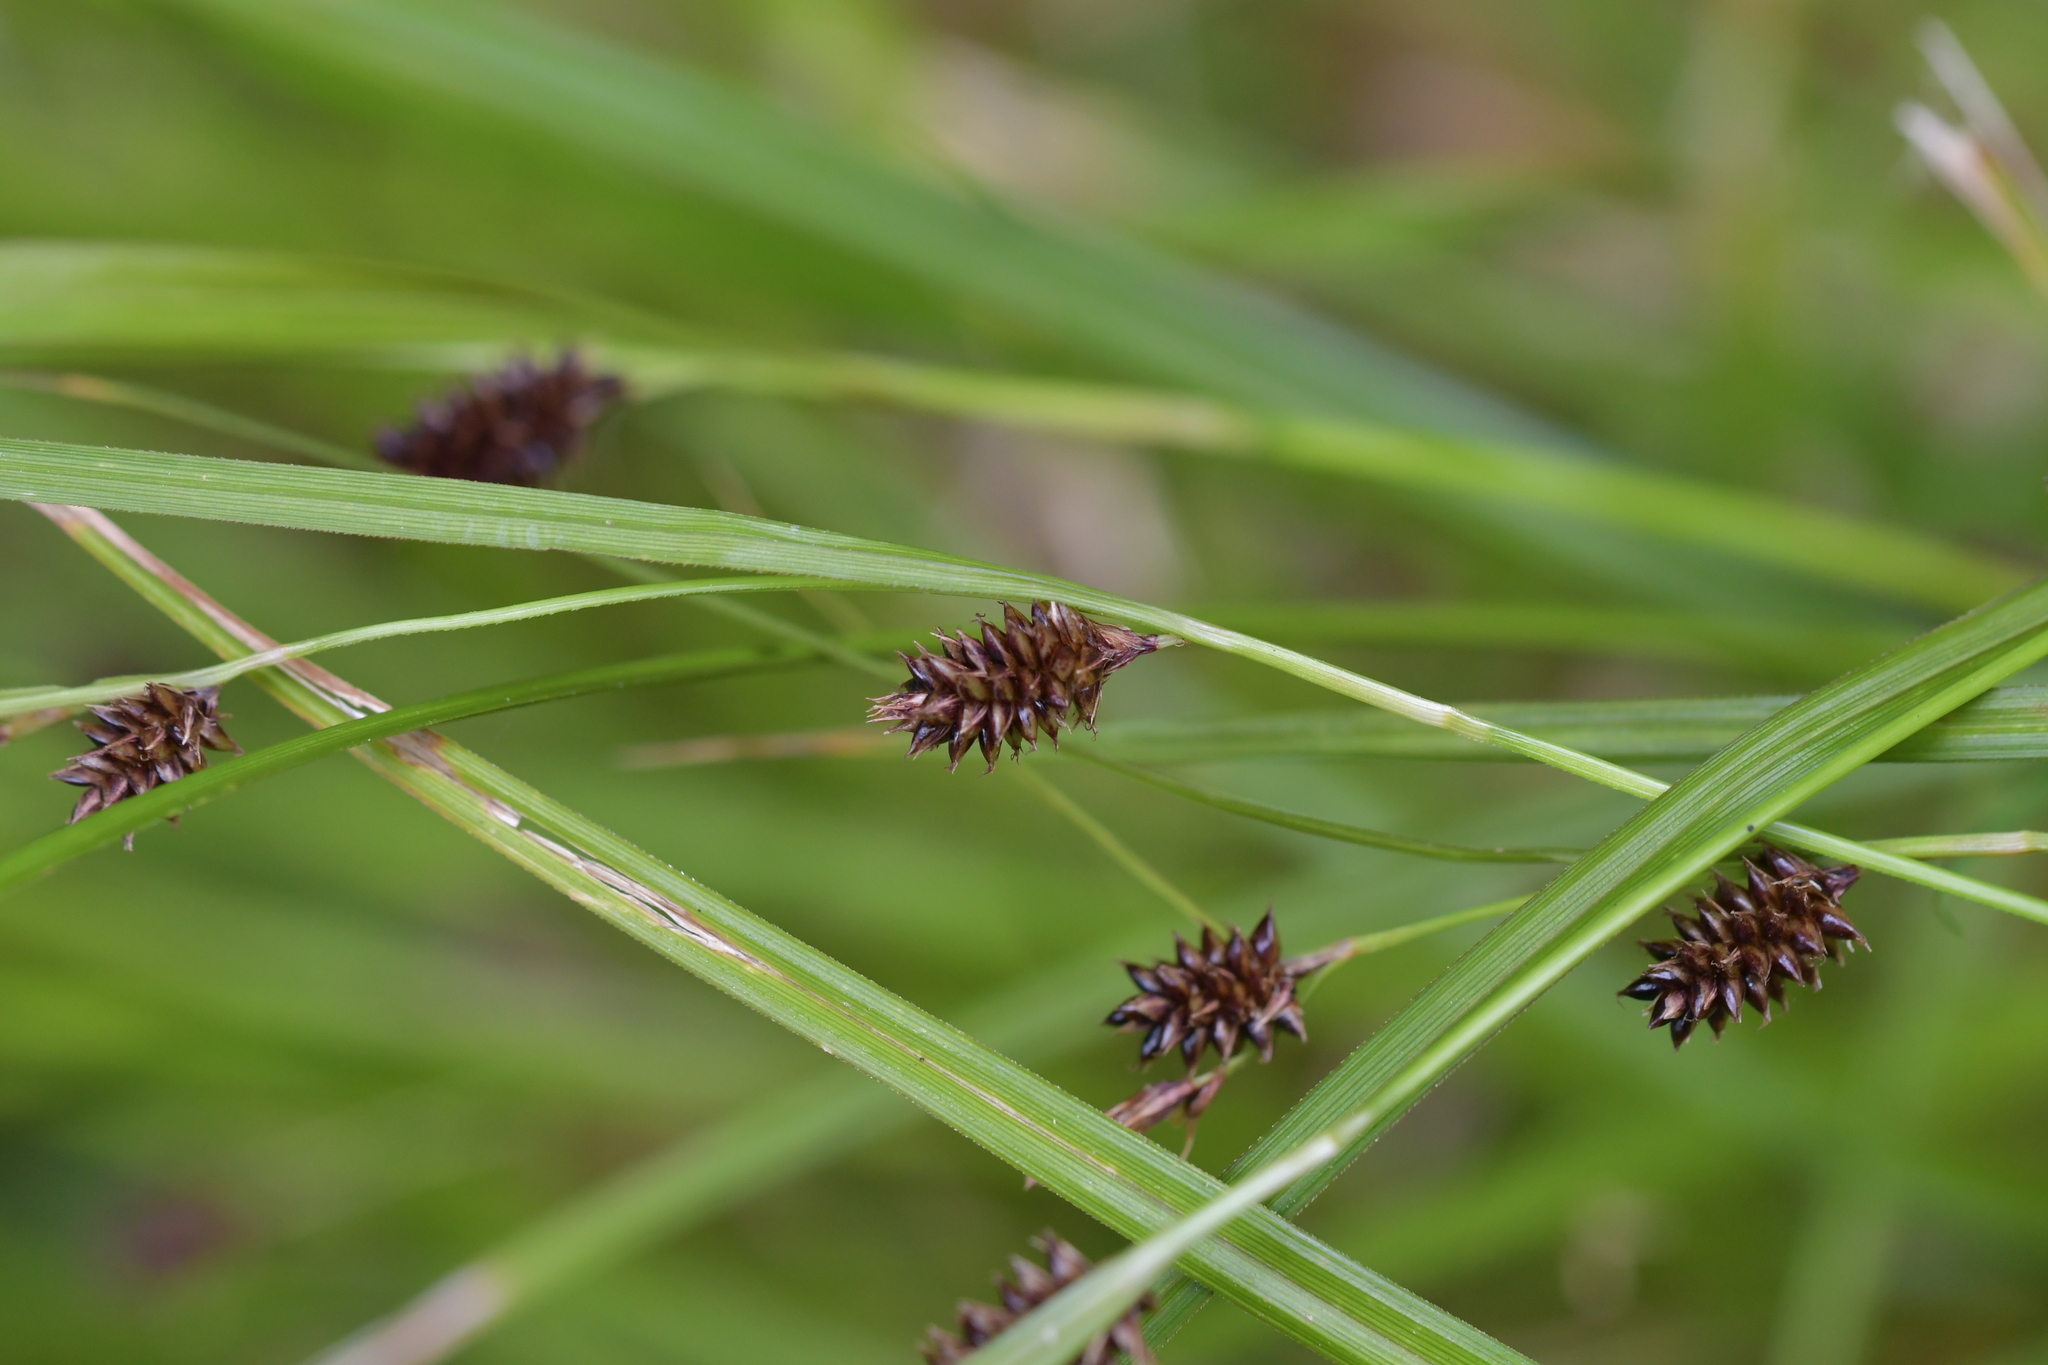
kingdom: Plantae
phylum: Tracheophyta
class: Liliopsida
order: Poales
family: Cyperaceae
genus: Carex
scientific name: Carex dissita
